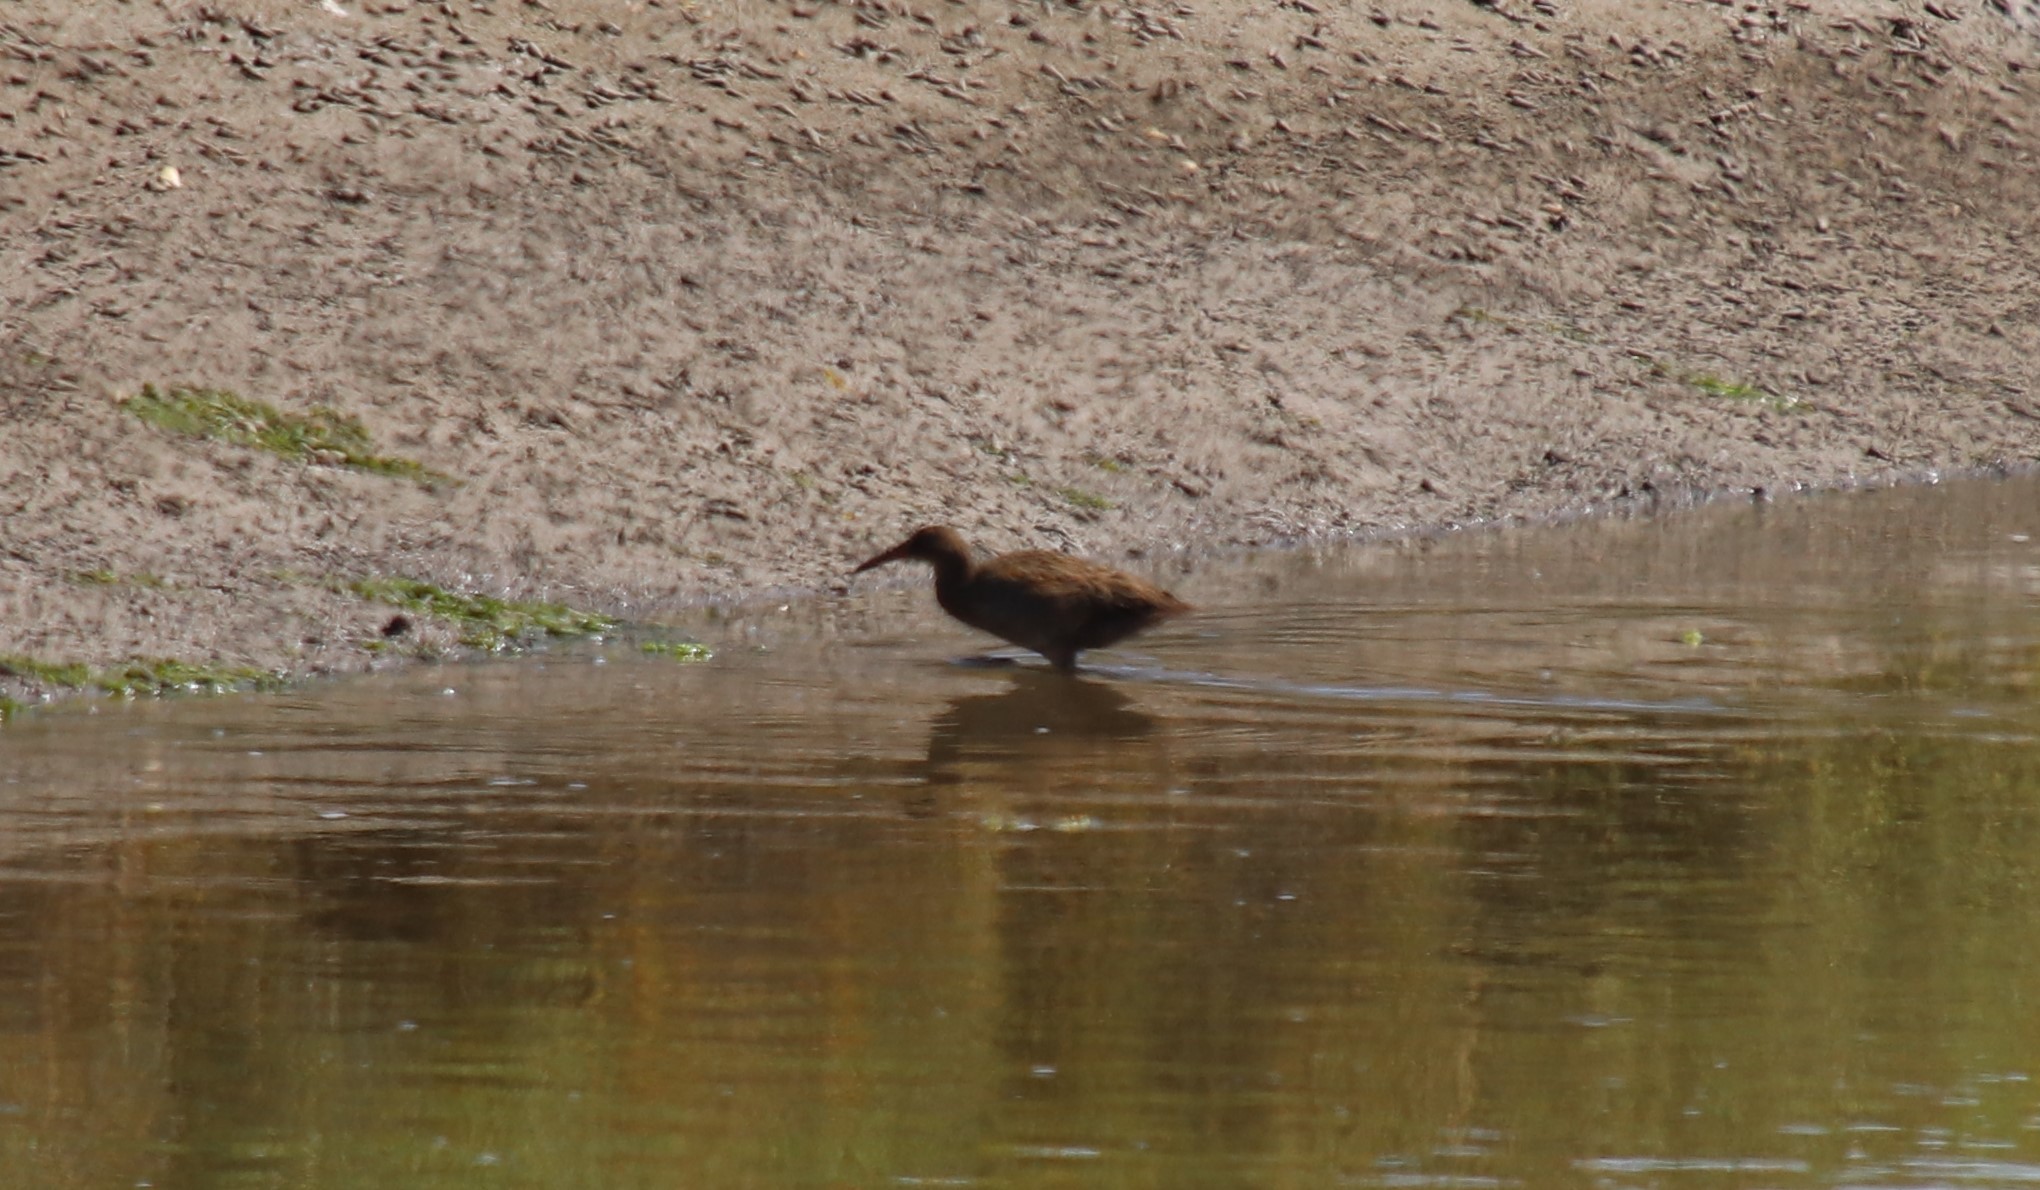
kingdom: Animalia
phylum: Chordata
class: Aves
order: Gruiformes
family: Rallidae
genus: Rallus
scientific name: Rallus obsoletus
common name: Ridgway's rail
